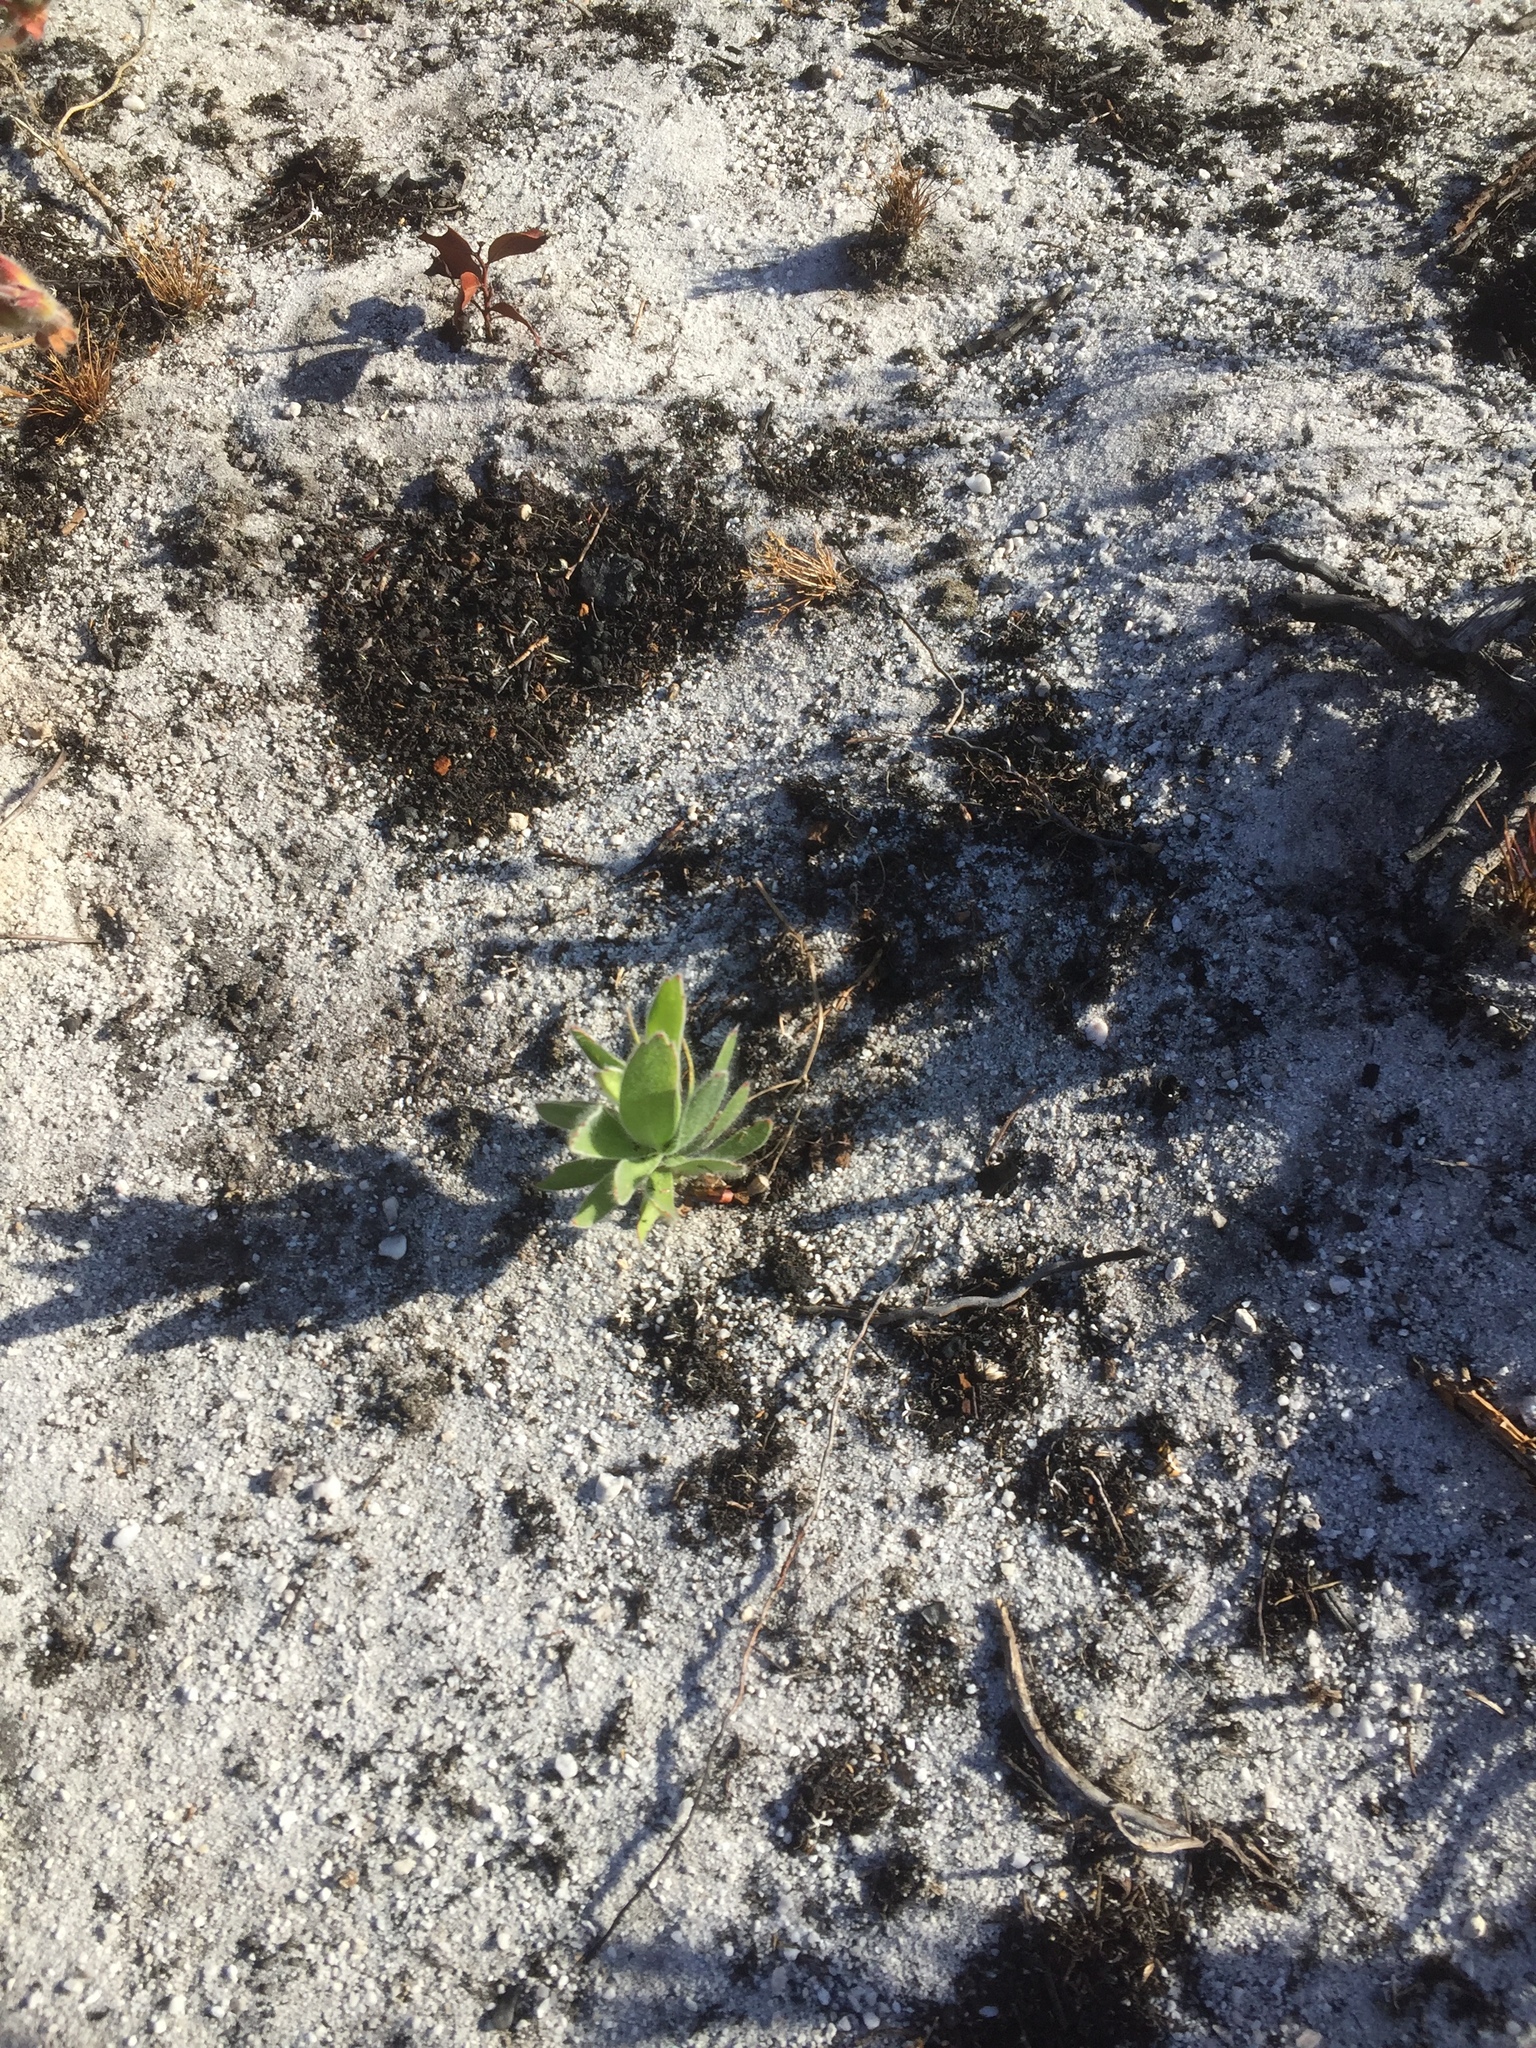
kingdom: Plantae
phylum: Tracheophyta
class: Magnoliopsida
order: Proteales
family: Proteaceae
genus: Leucospermum
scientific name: Leucospermum conocarpodendron
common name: Tree pincushion
